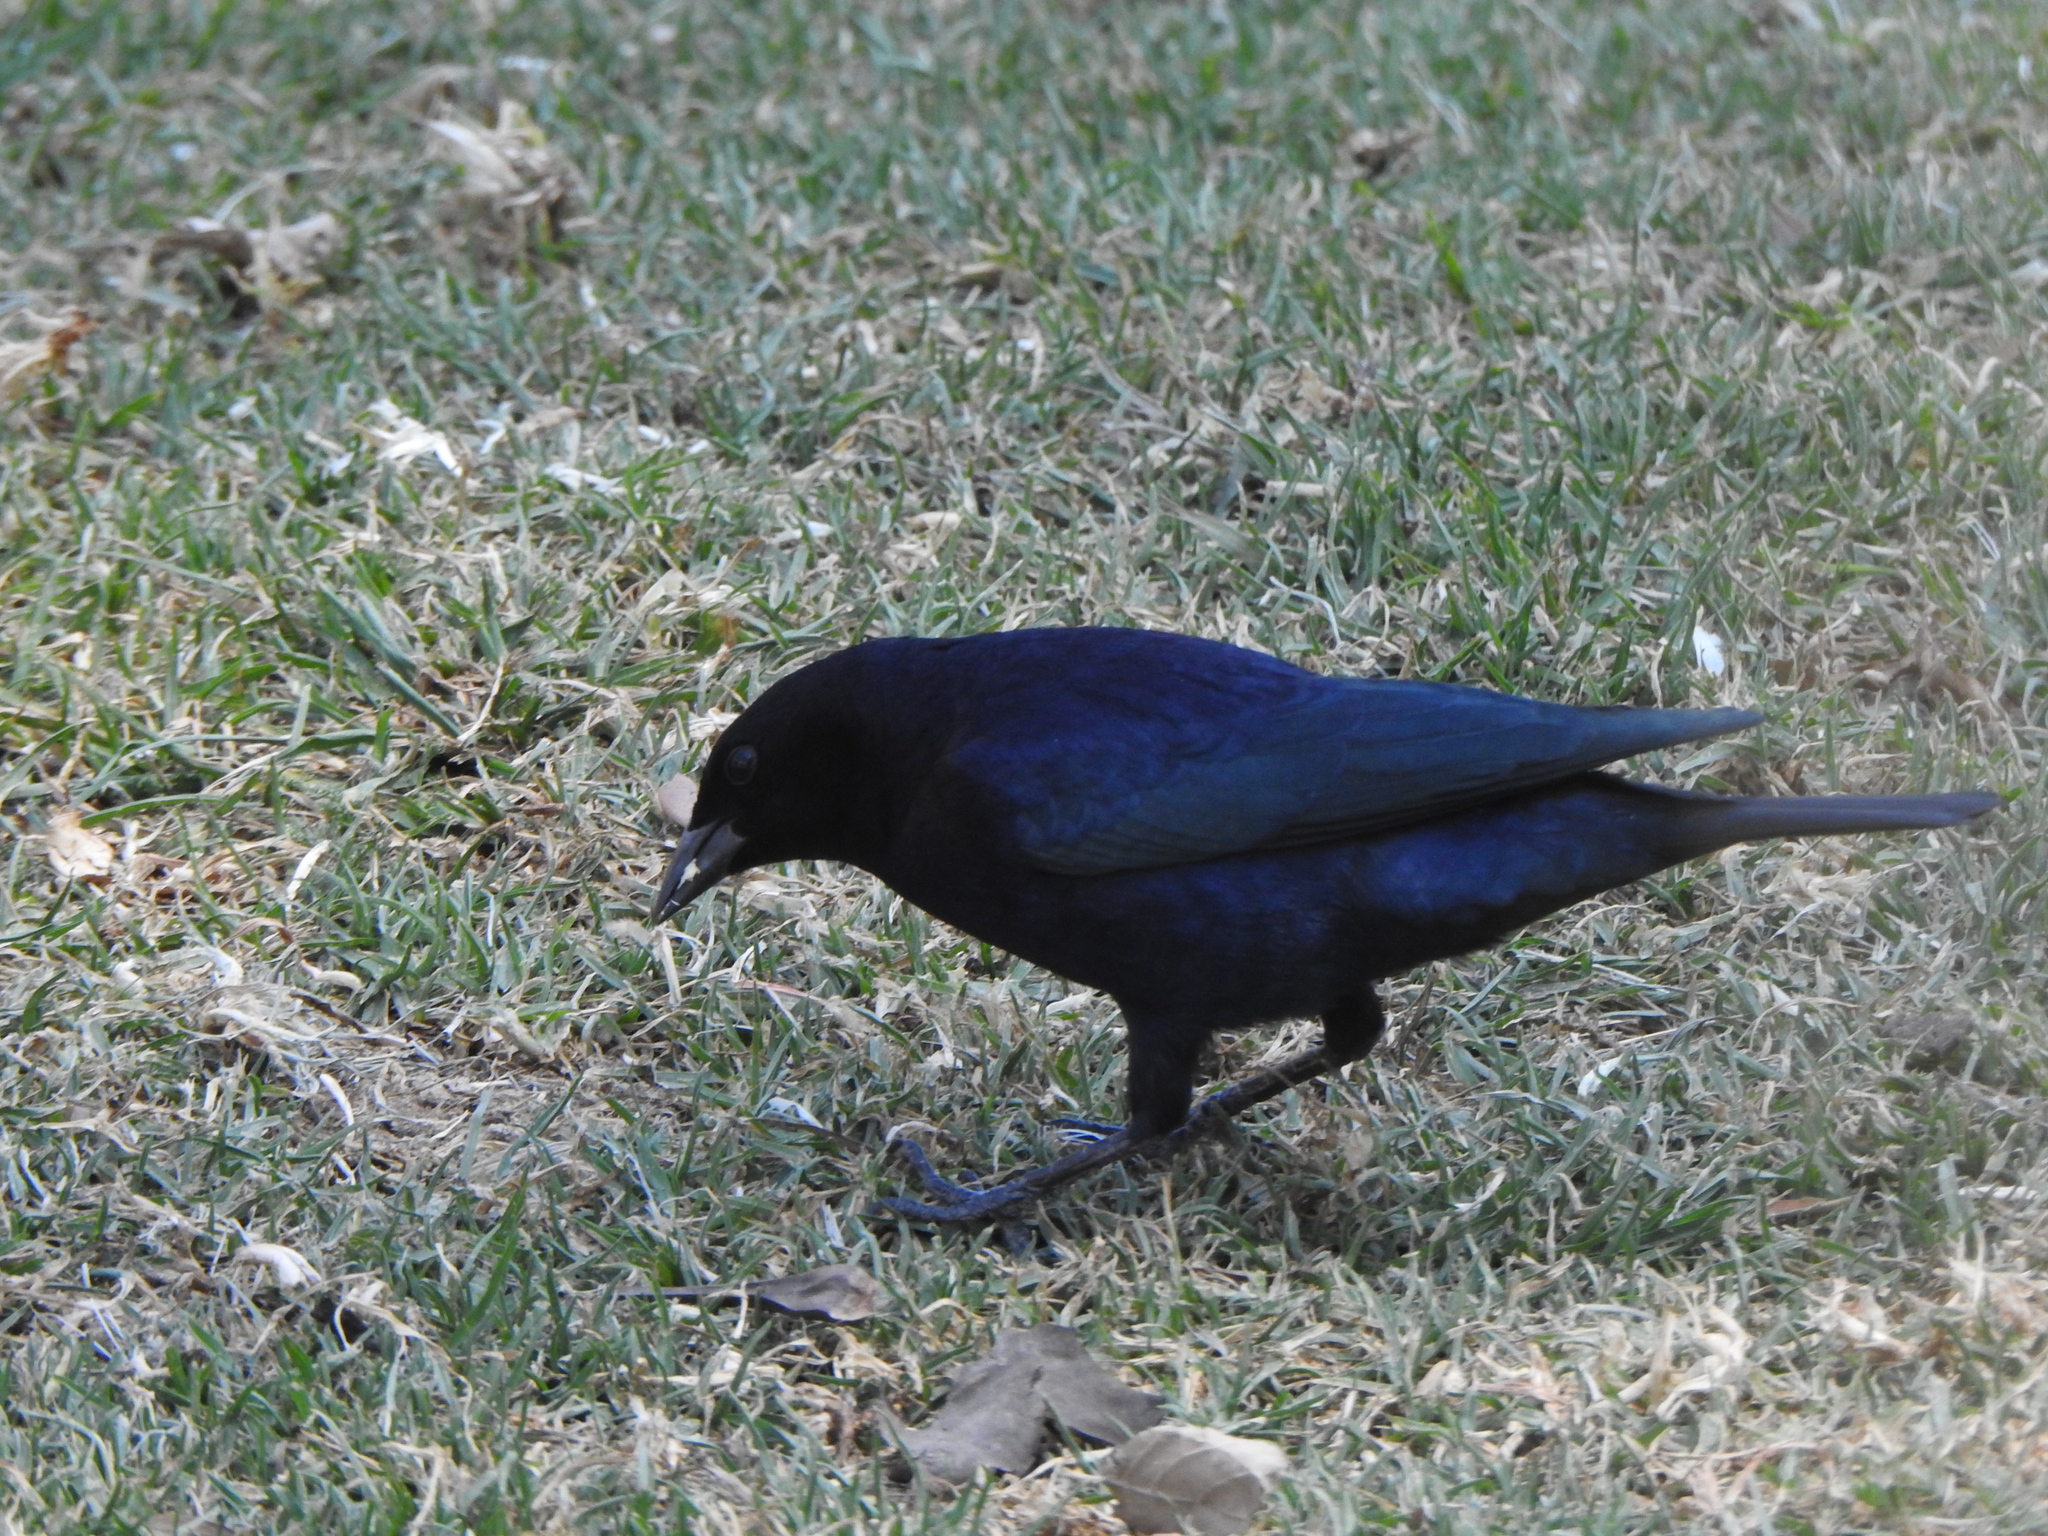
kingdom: Animalia
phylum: Chordata
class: Aves
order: Passeriformes
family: Icteridae
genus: Molothrus
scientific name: Molothrus bonariensis
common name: Shiny cowbird
